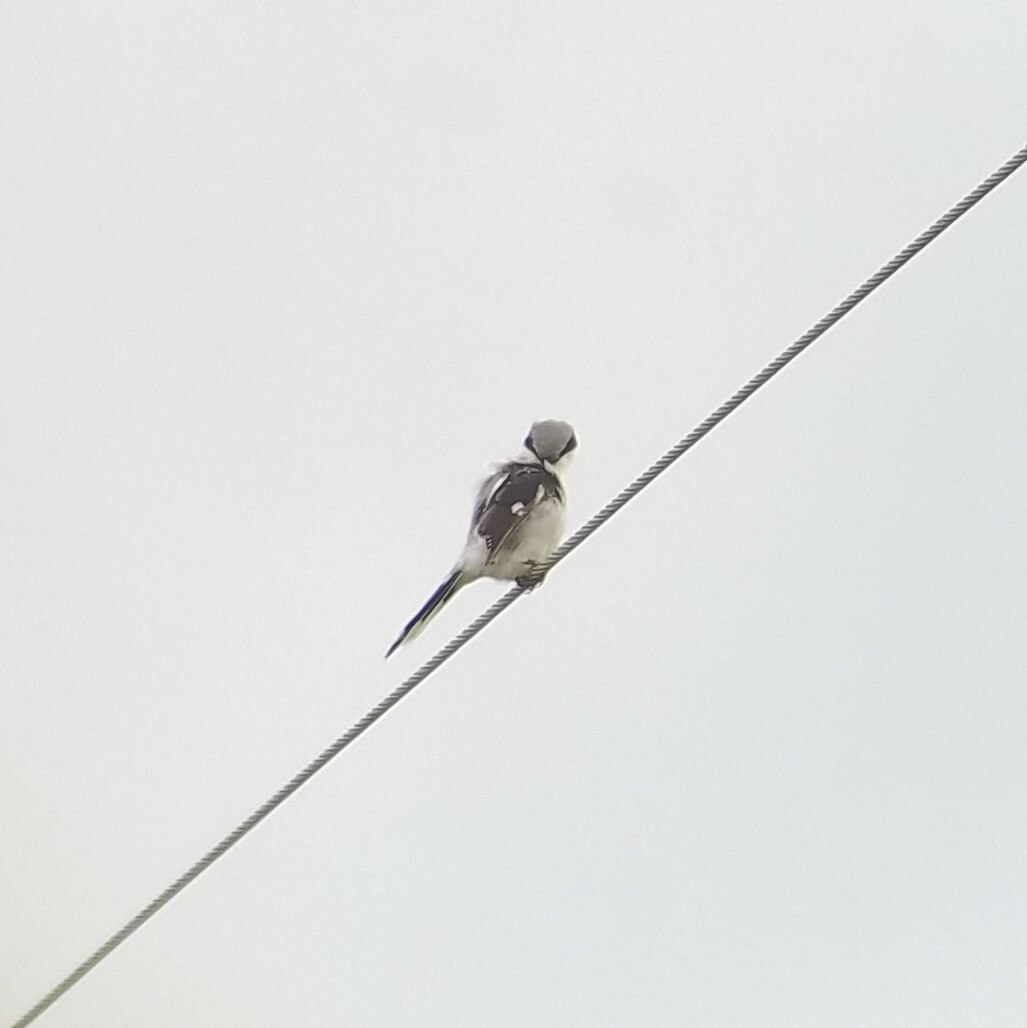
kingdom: Animalia
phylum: Chordata
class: Aves
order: Passeriformes
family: Laniidae
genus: Lanius
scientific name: Lanius ludovicianus
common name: Loggerhead shrike
